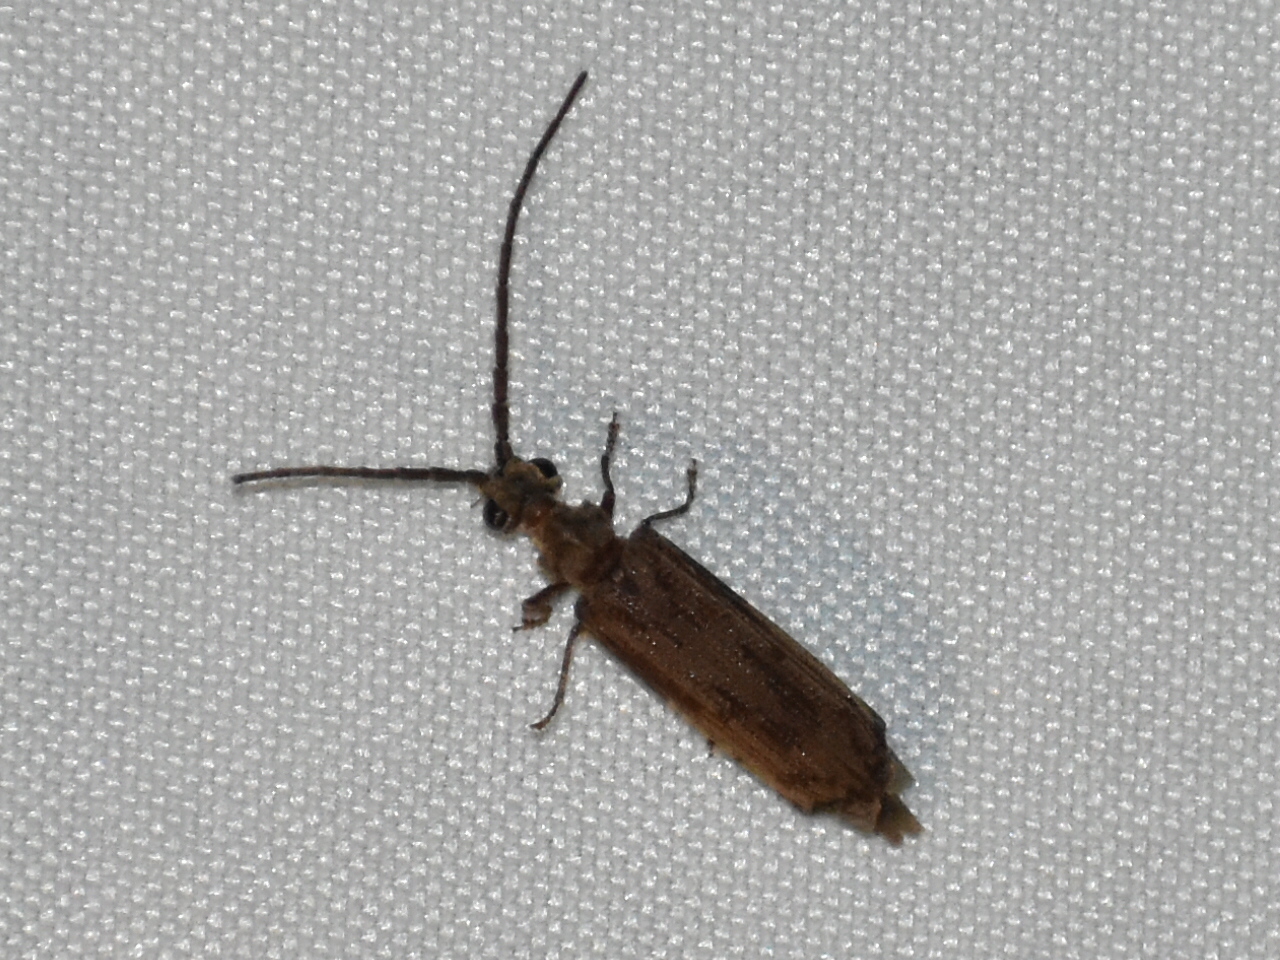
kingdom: Animalia
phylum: Arthropoda
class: Insecta
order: Coleoptera
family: Cupedidae
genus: Tenomerga
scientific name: Tenomerga cinerea
